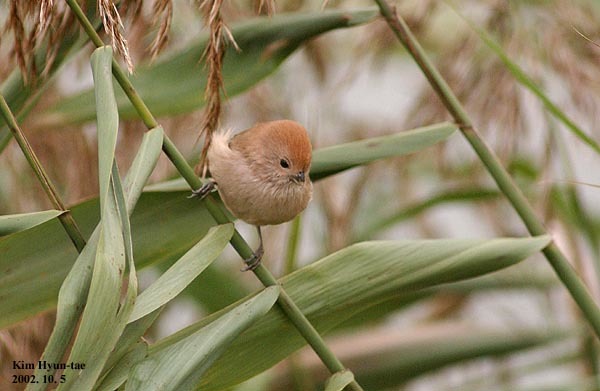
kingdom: Animalia
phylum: Chordata
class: Aves
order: Passeriformes
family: Sylviidae
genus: Sinosuthora
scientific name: Sinosuthora webbiana
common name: Vinous-throated parrotbill
